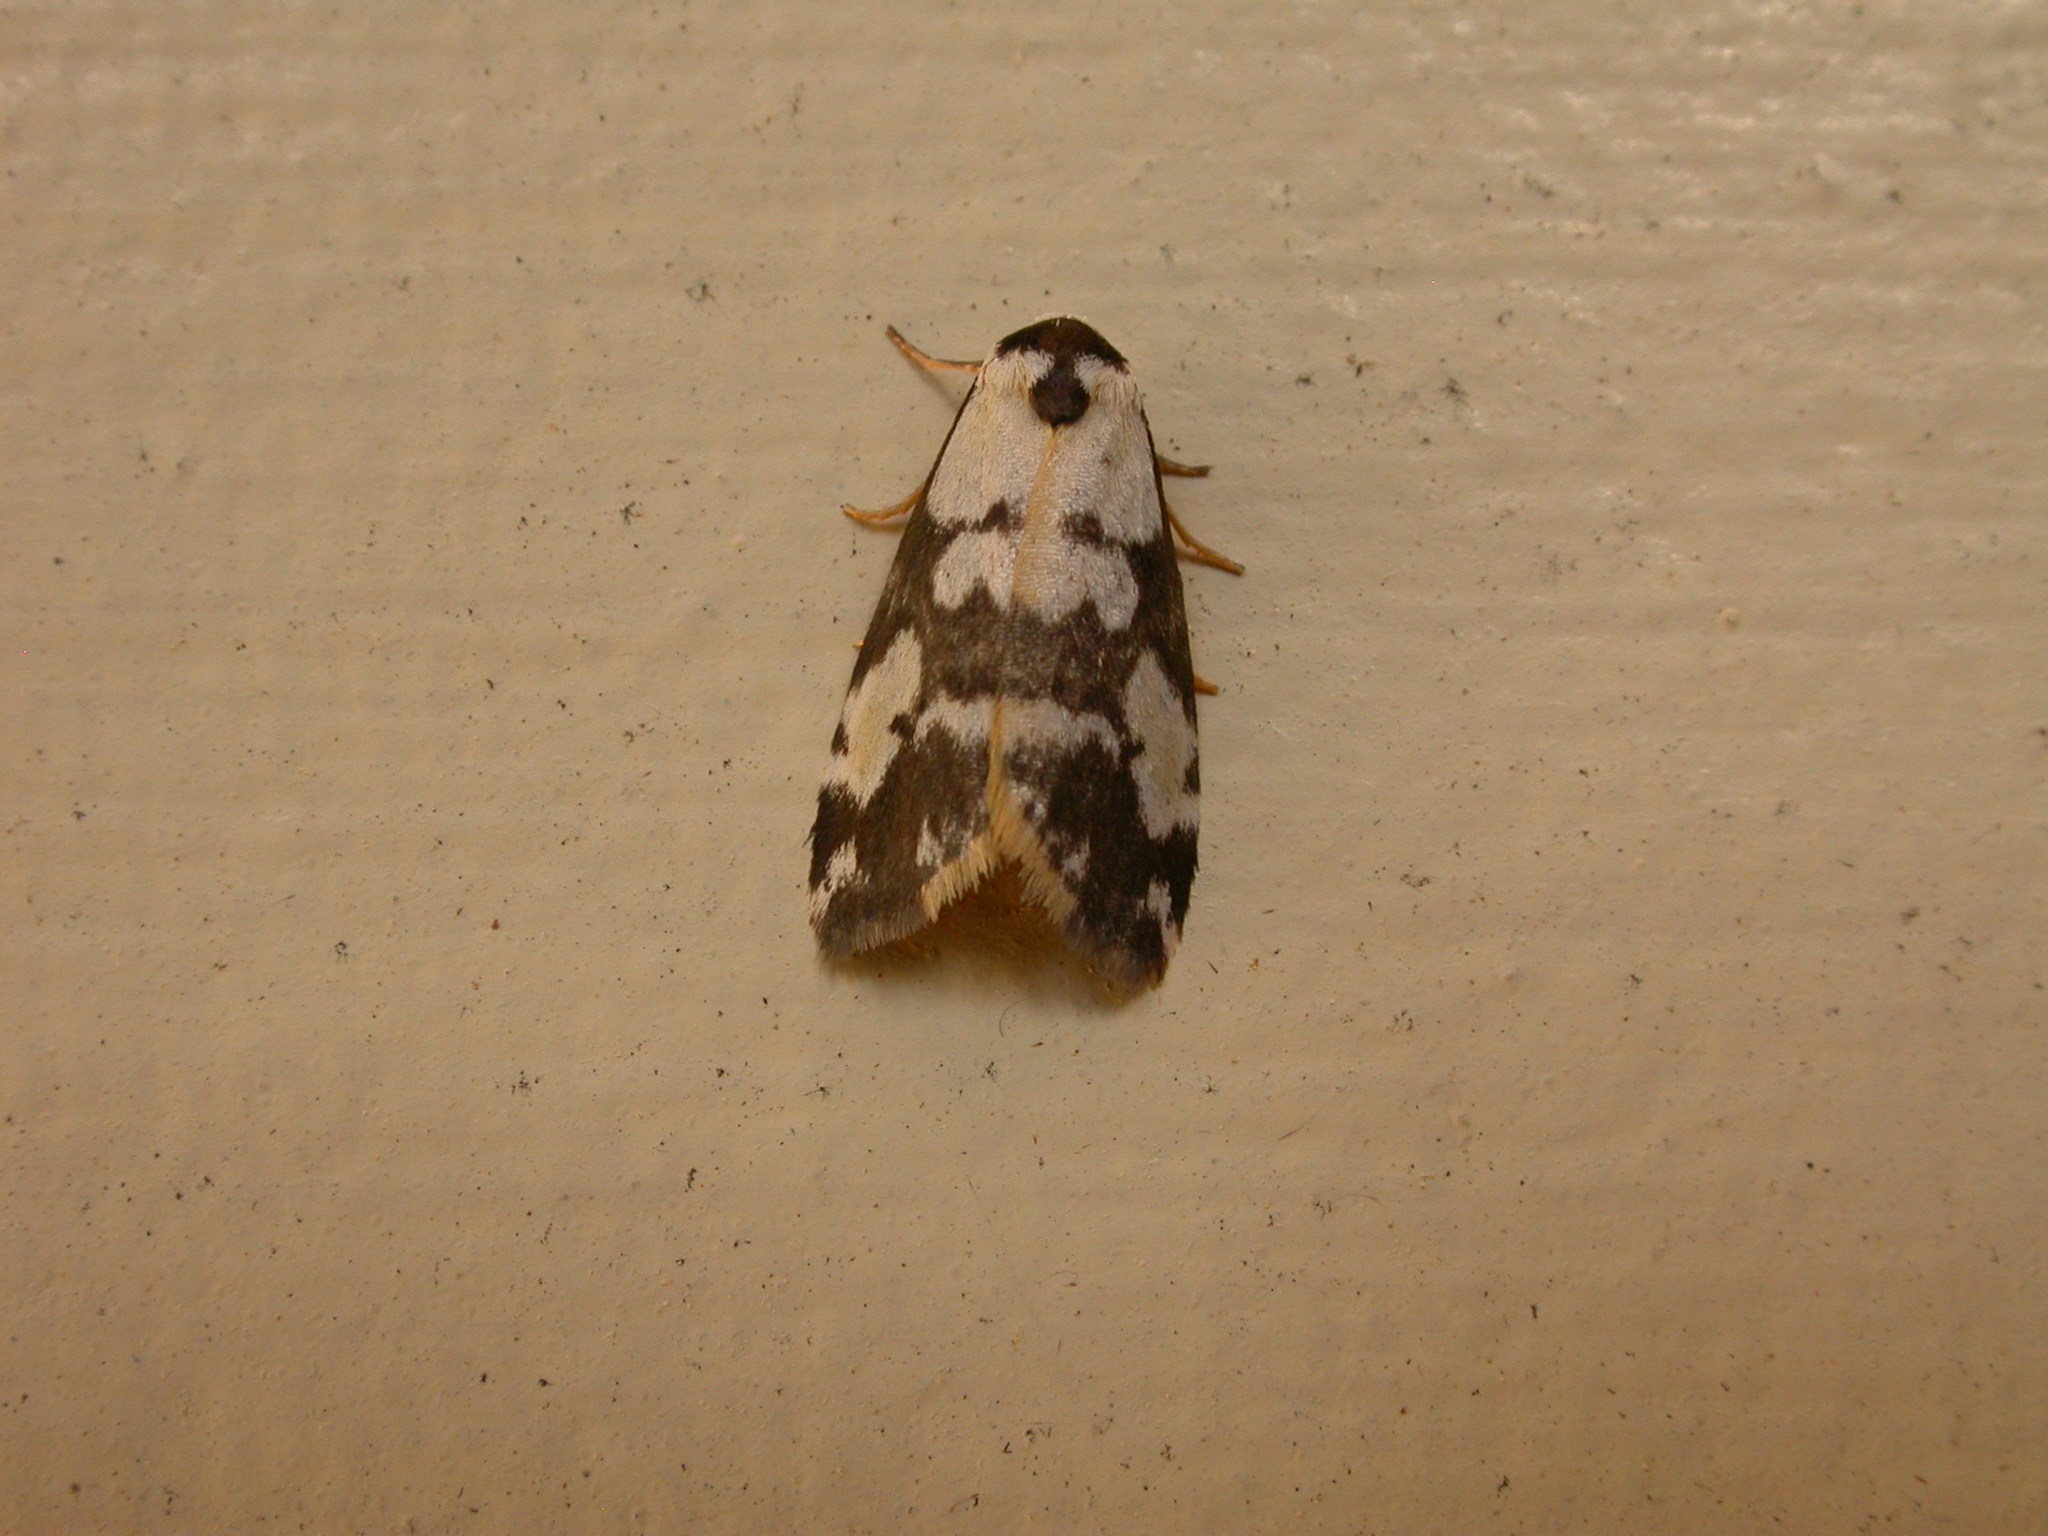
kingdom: Animalia
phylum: Arthropoda
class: Insecta
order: Lepidoptera
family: Erebidae
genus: Thallarcha
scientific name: Thallarcha pellax
